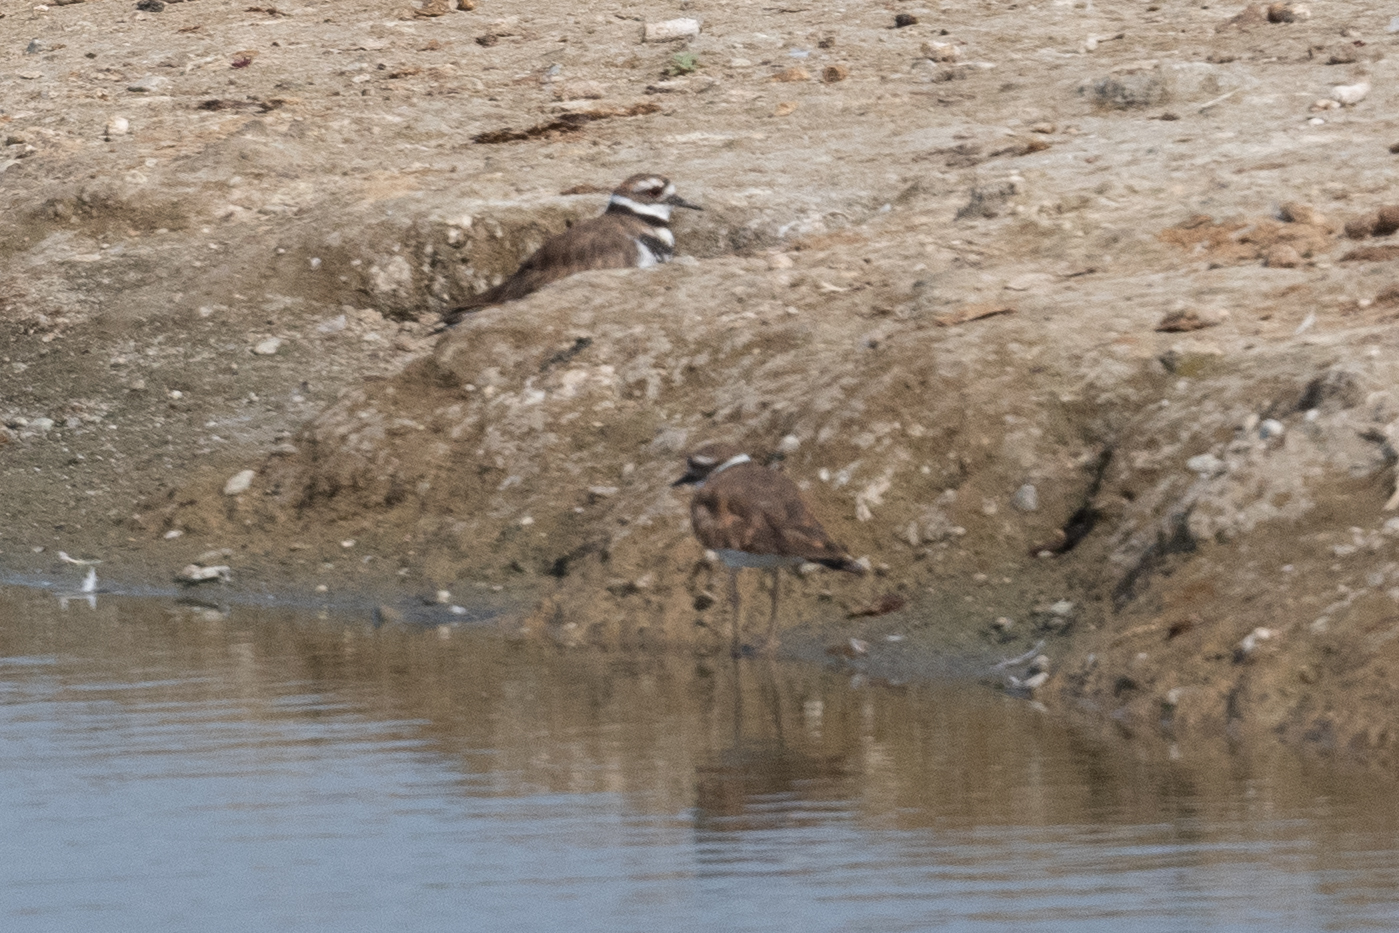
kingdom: Animalia
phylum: Chordata
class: Aves
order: Charadriiformes
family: Charadriidae
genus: Charadrius
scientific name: Charadrius vociferus
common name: Killdeer
